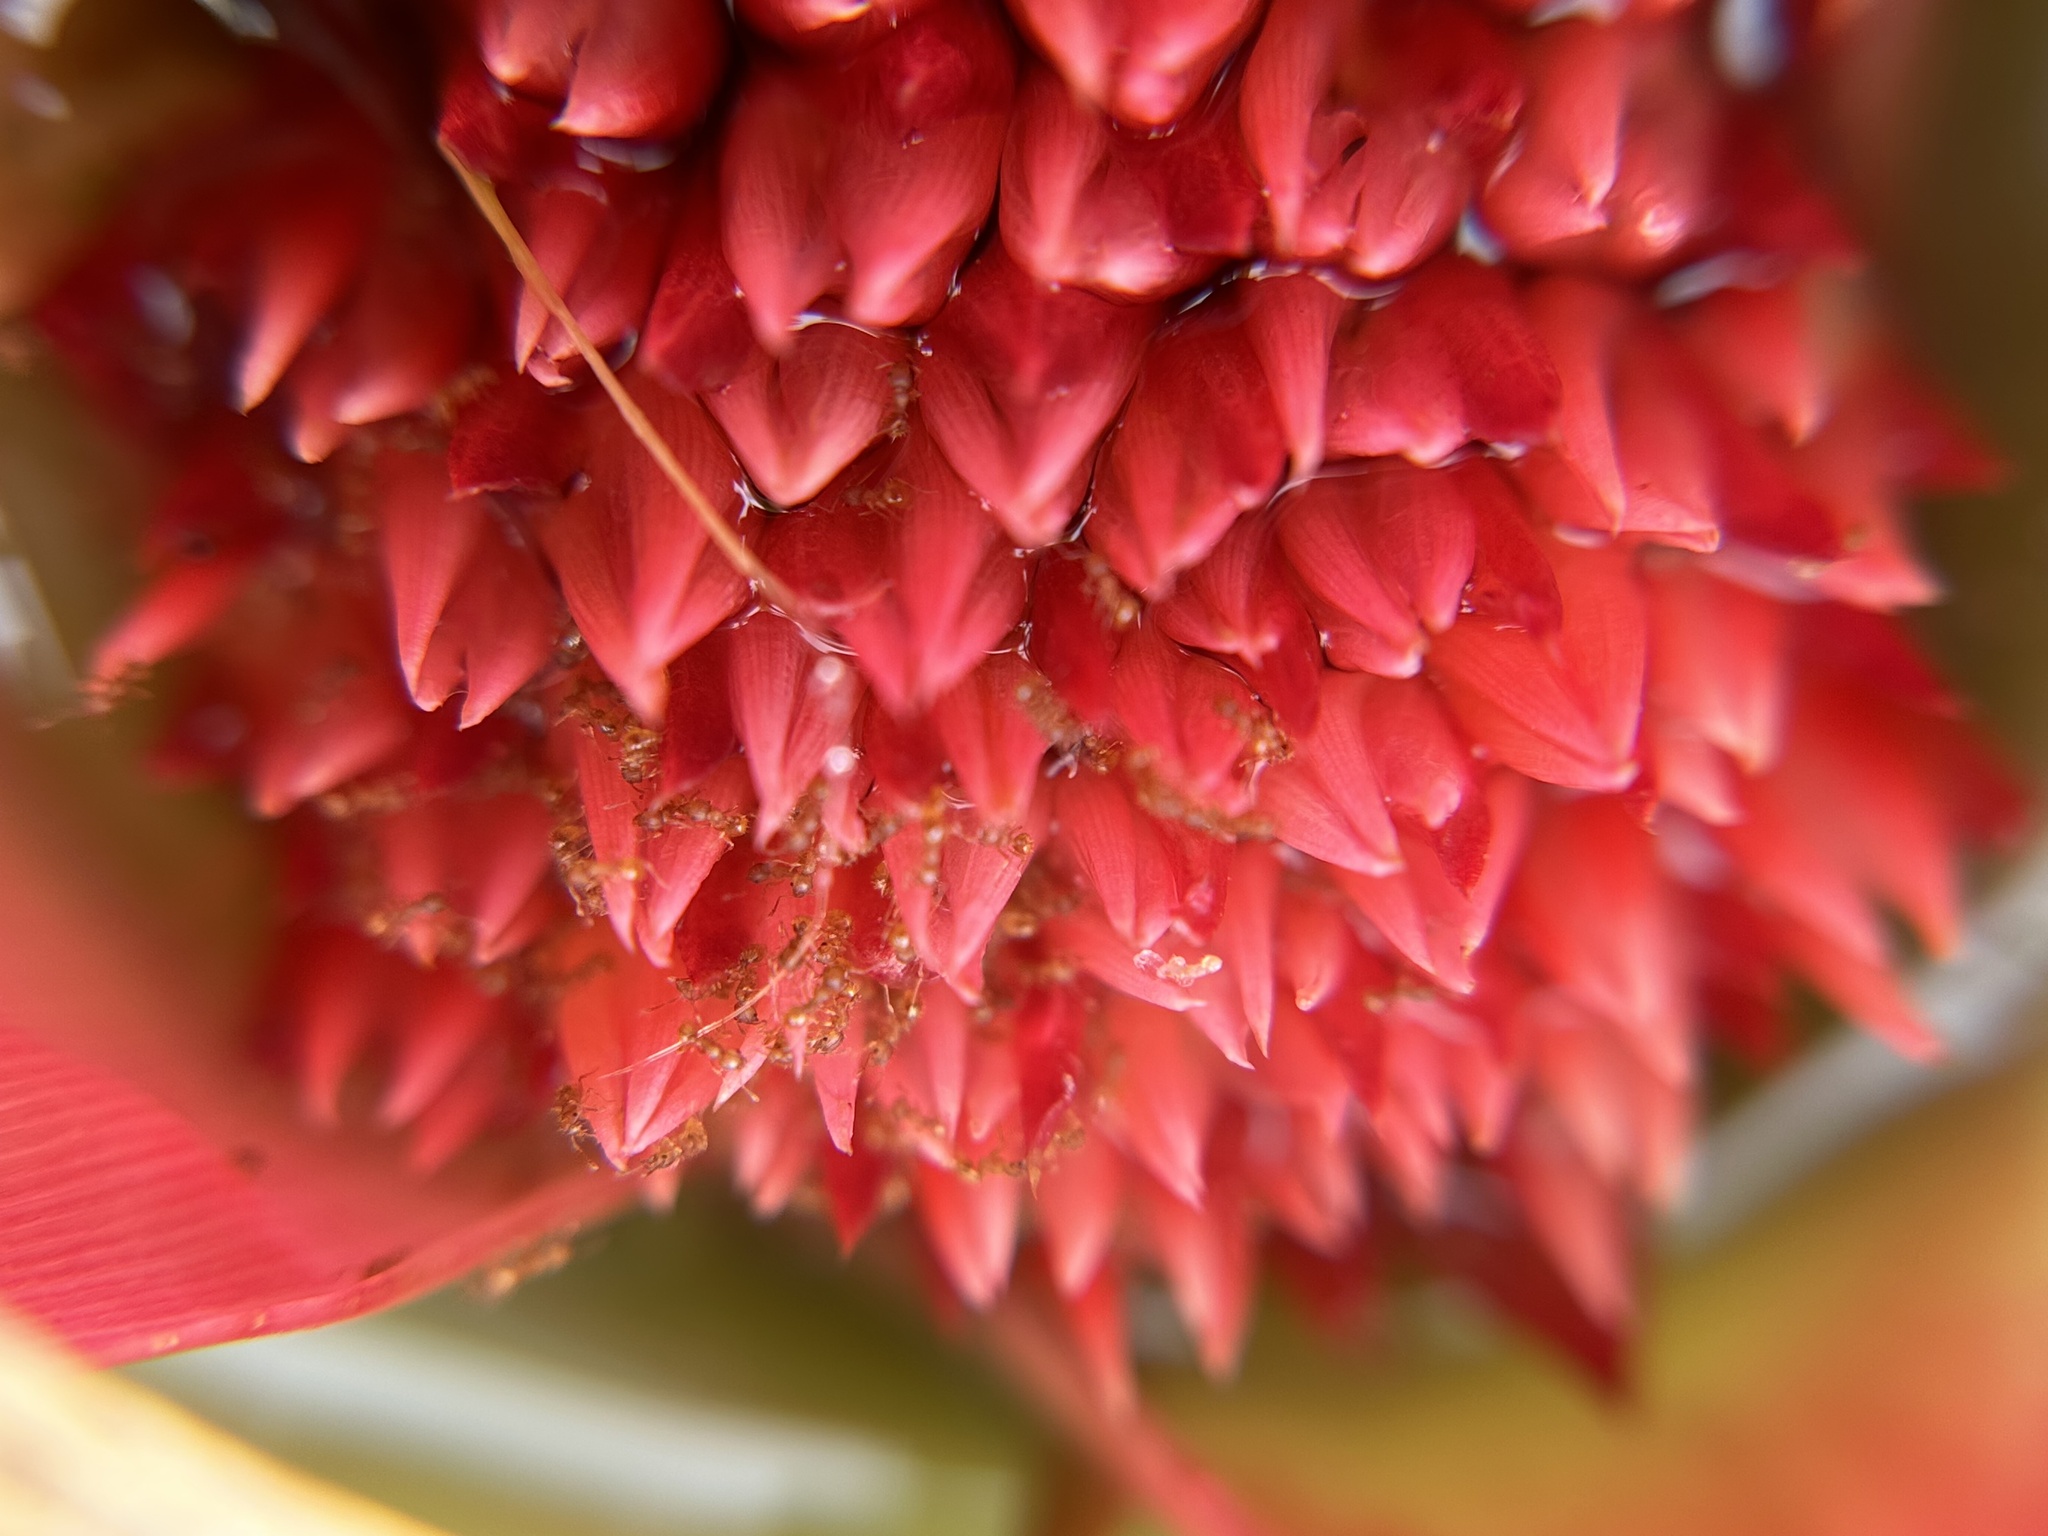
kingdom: Animalia
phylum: Arthropoda
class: Insecta
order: Hymenoptera
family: Formicidae
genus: Wasmannia
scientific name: Wasmannia auropunctata
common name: Little fire ant
